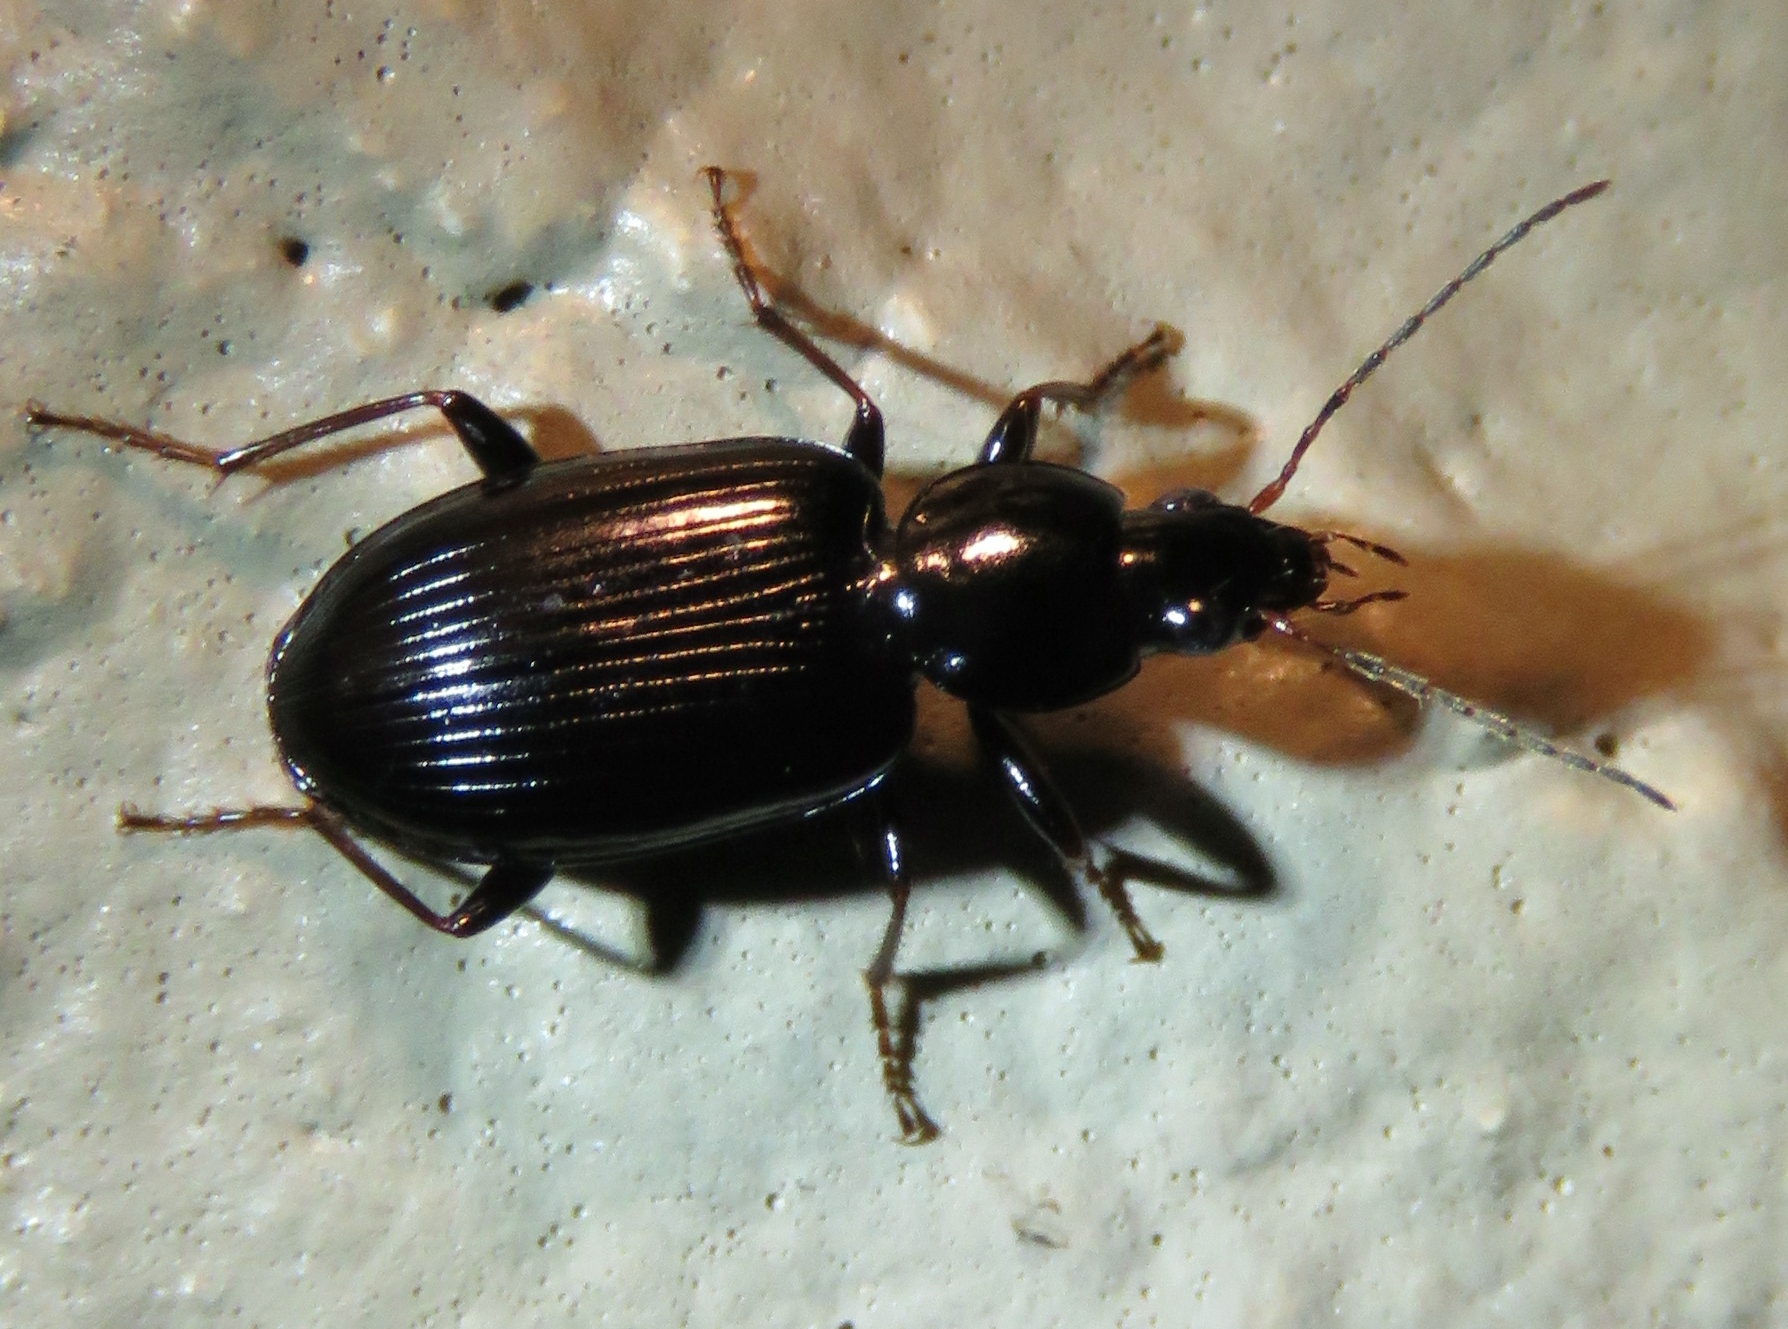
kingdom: Animalia
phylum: Arthropoda
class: Insecta
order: Coleoptera
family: Carabidae
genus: Agonum
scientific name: Agonum punctiforme
